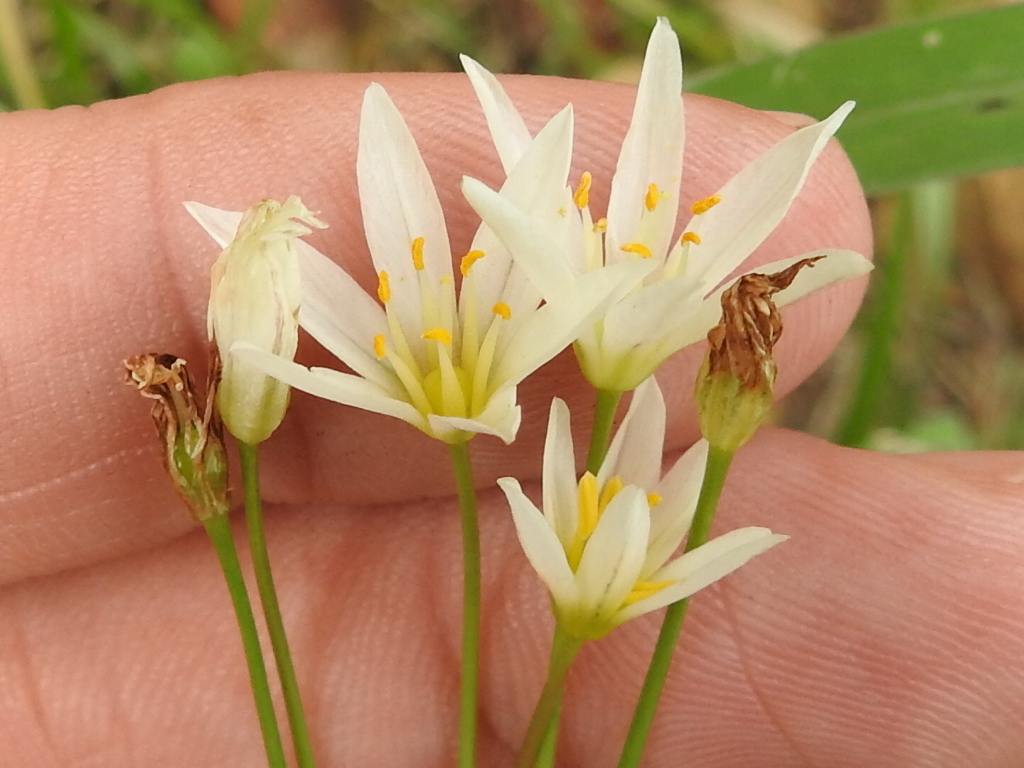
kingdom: Plantae
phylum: Tracheophyta
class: Liliopsida
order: Asparagales
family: Amaryllidaceae
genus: Nothoscordum
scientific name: Nothoscordum bivalve
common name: Crow-poison
